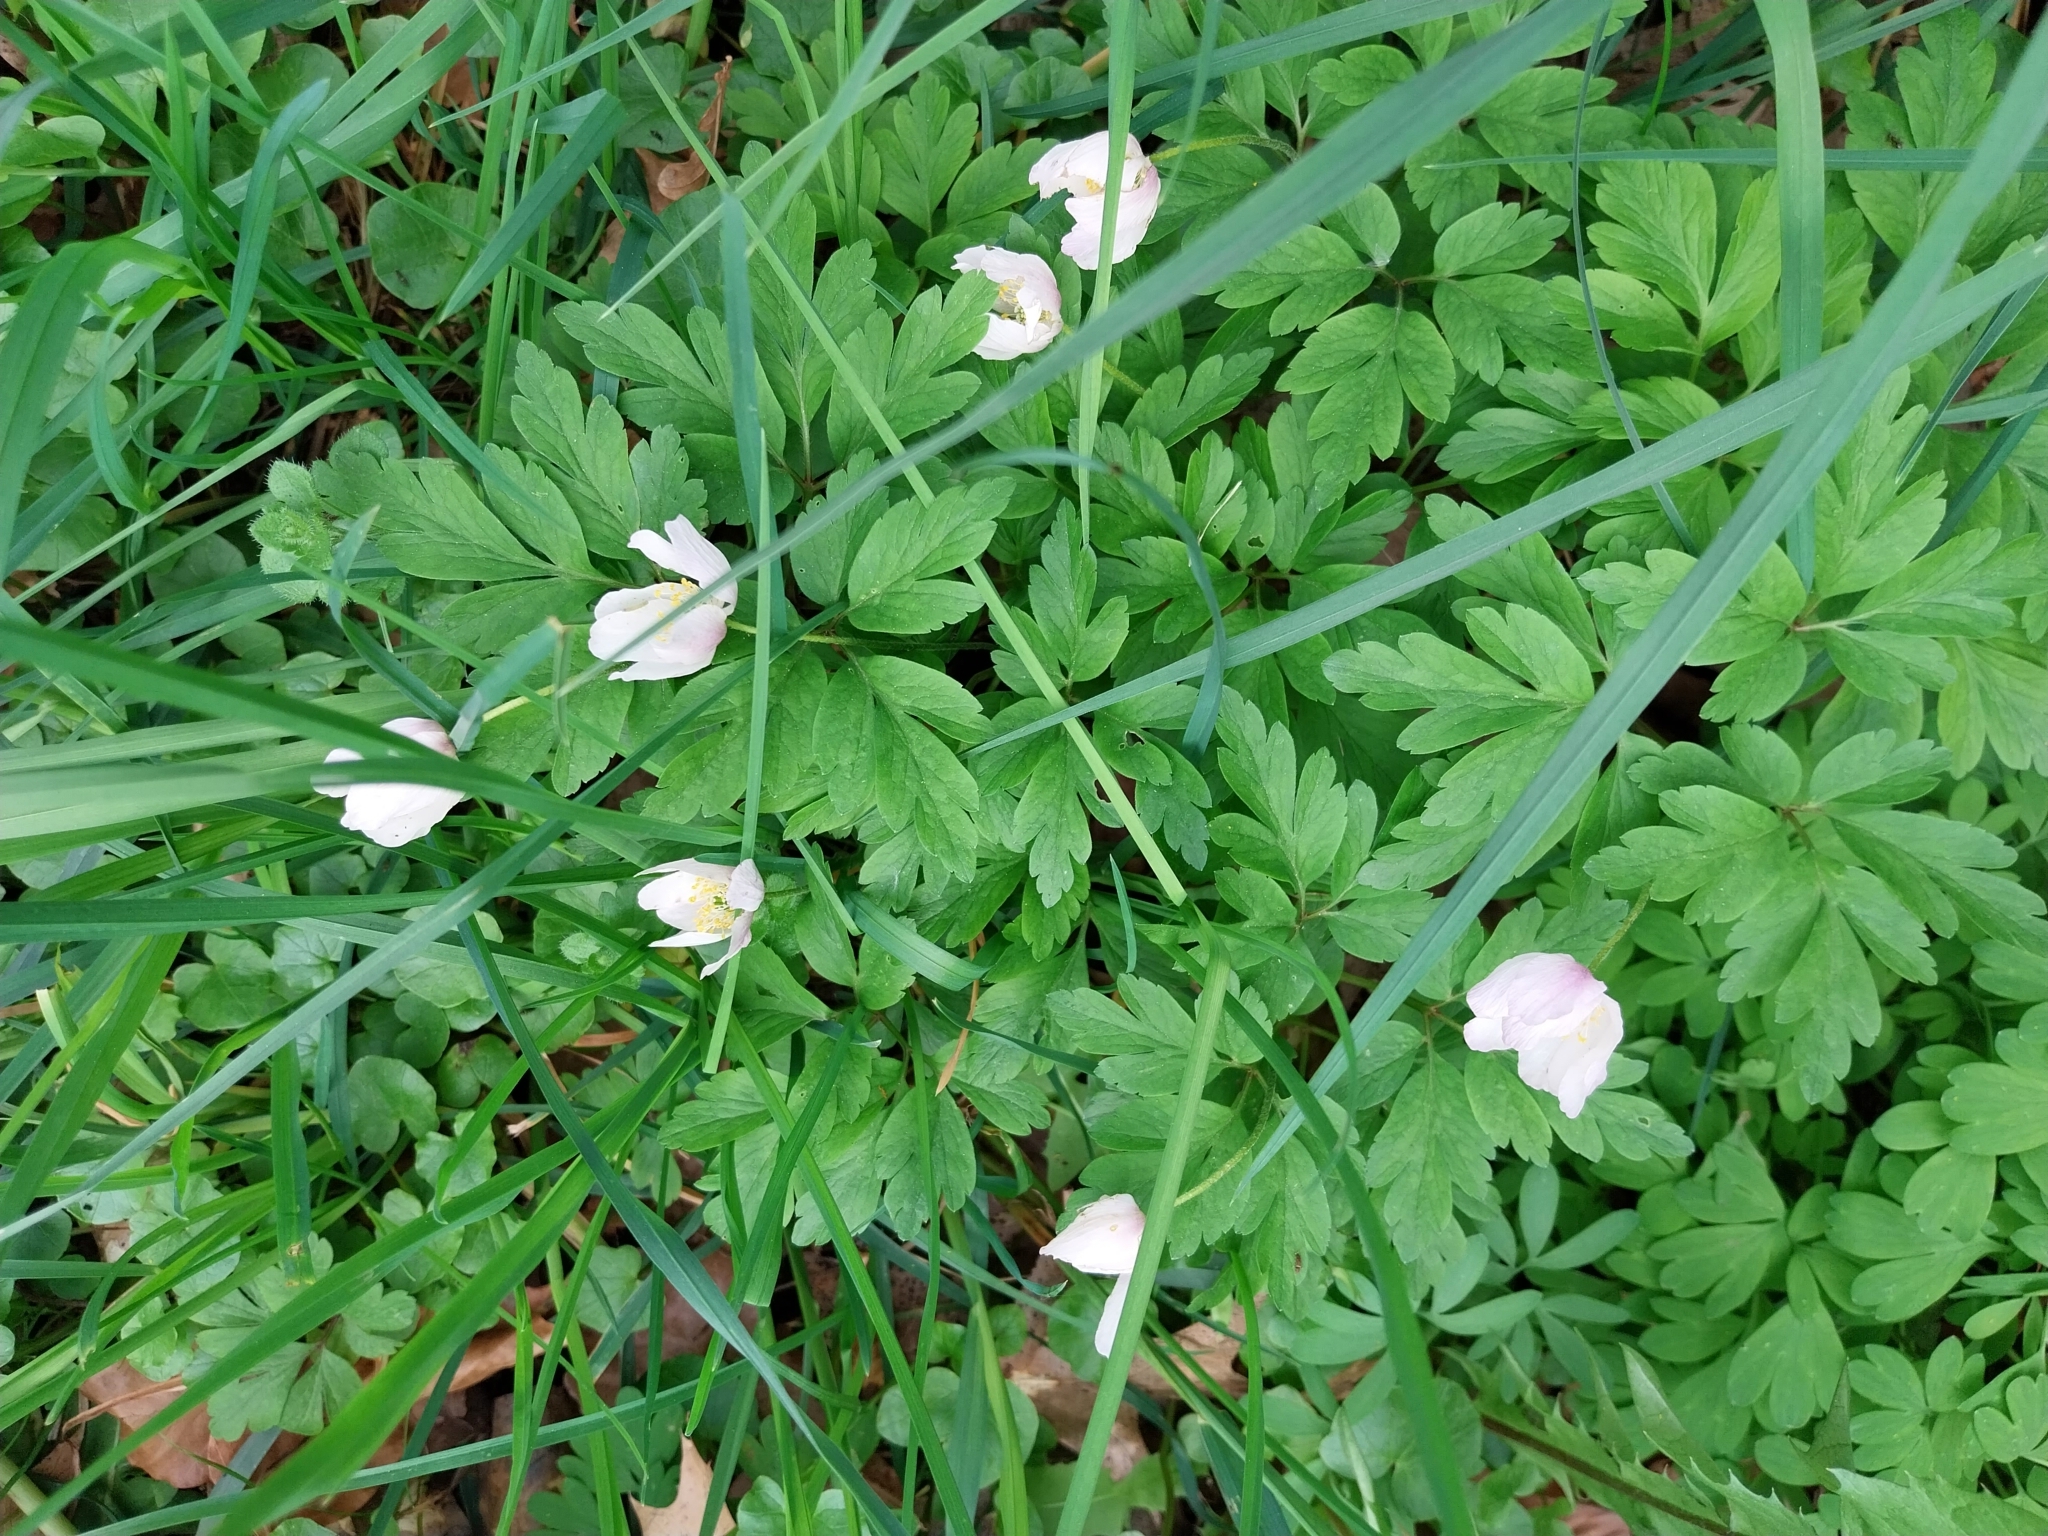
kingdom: Plantae
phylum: Tracheophyta
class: Magnoliopsida
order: Ranunculales
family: Ranunculaceae
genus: Anemone
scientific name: Anemone nemorosa
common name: Wood anemone
